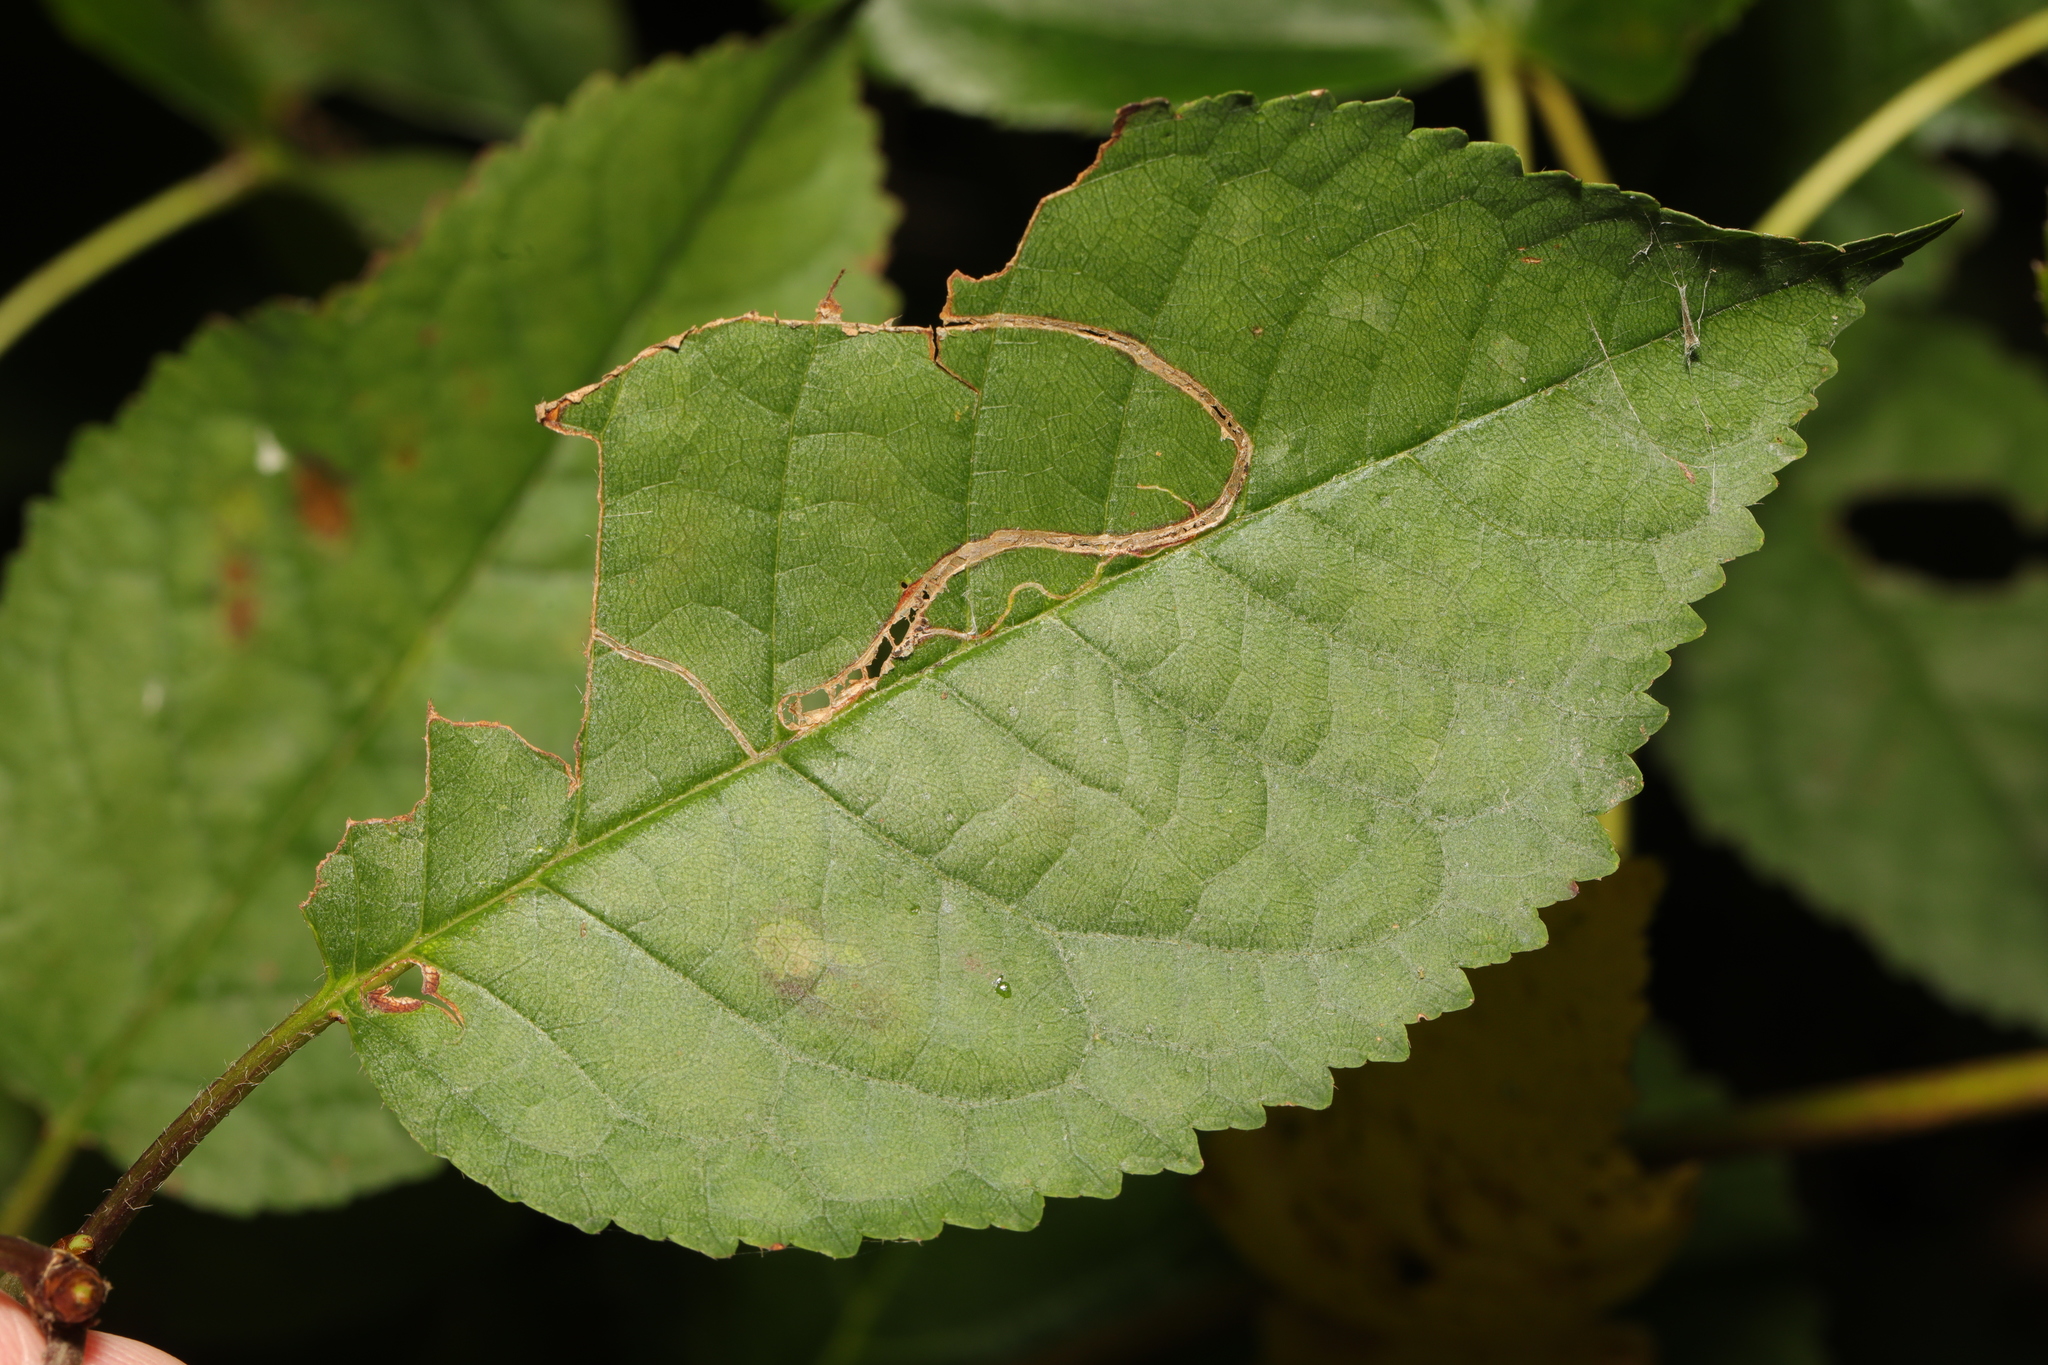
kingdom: Plantae
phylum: Tracheophyta
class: Magnoliopsida
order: Rosales
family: Rosaceae
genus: Prunus
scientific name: Prunus avium
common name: Sweet cherry
